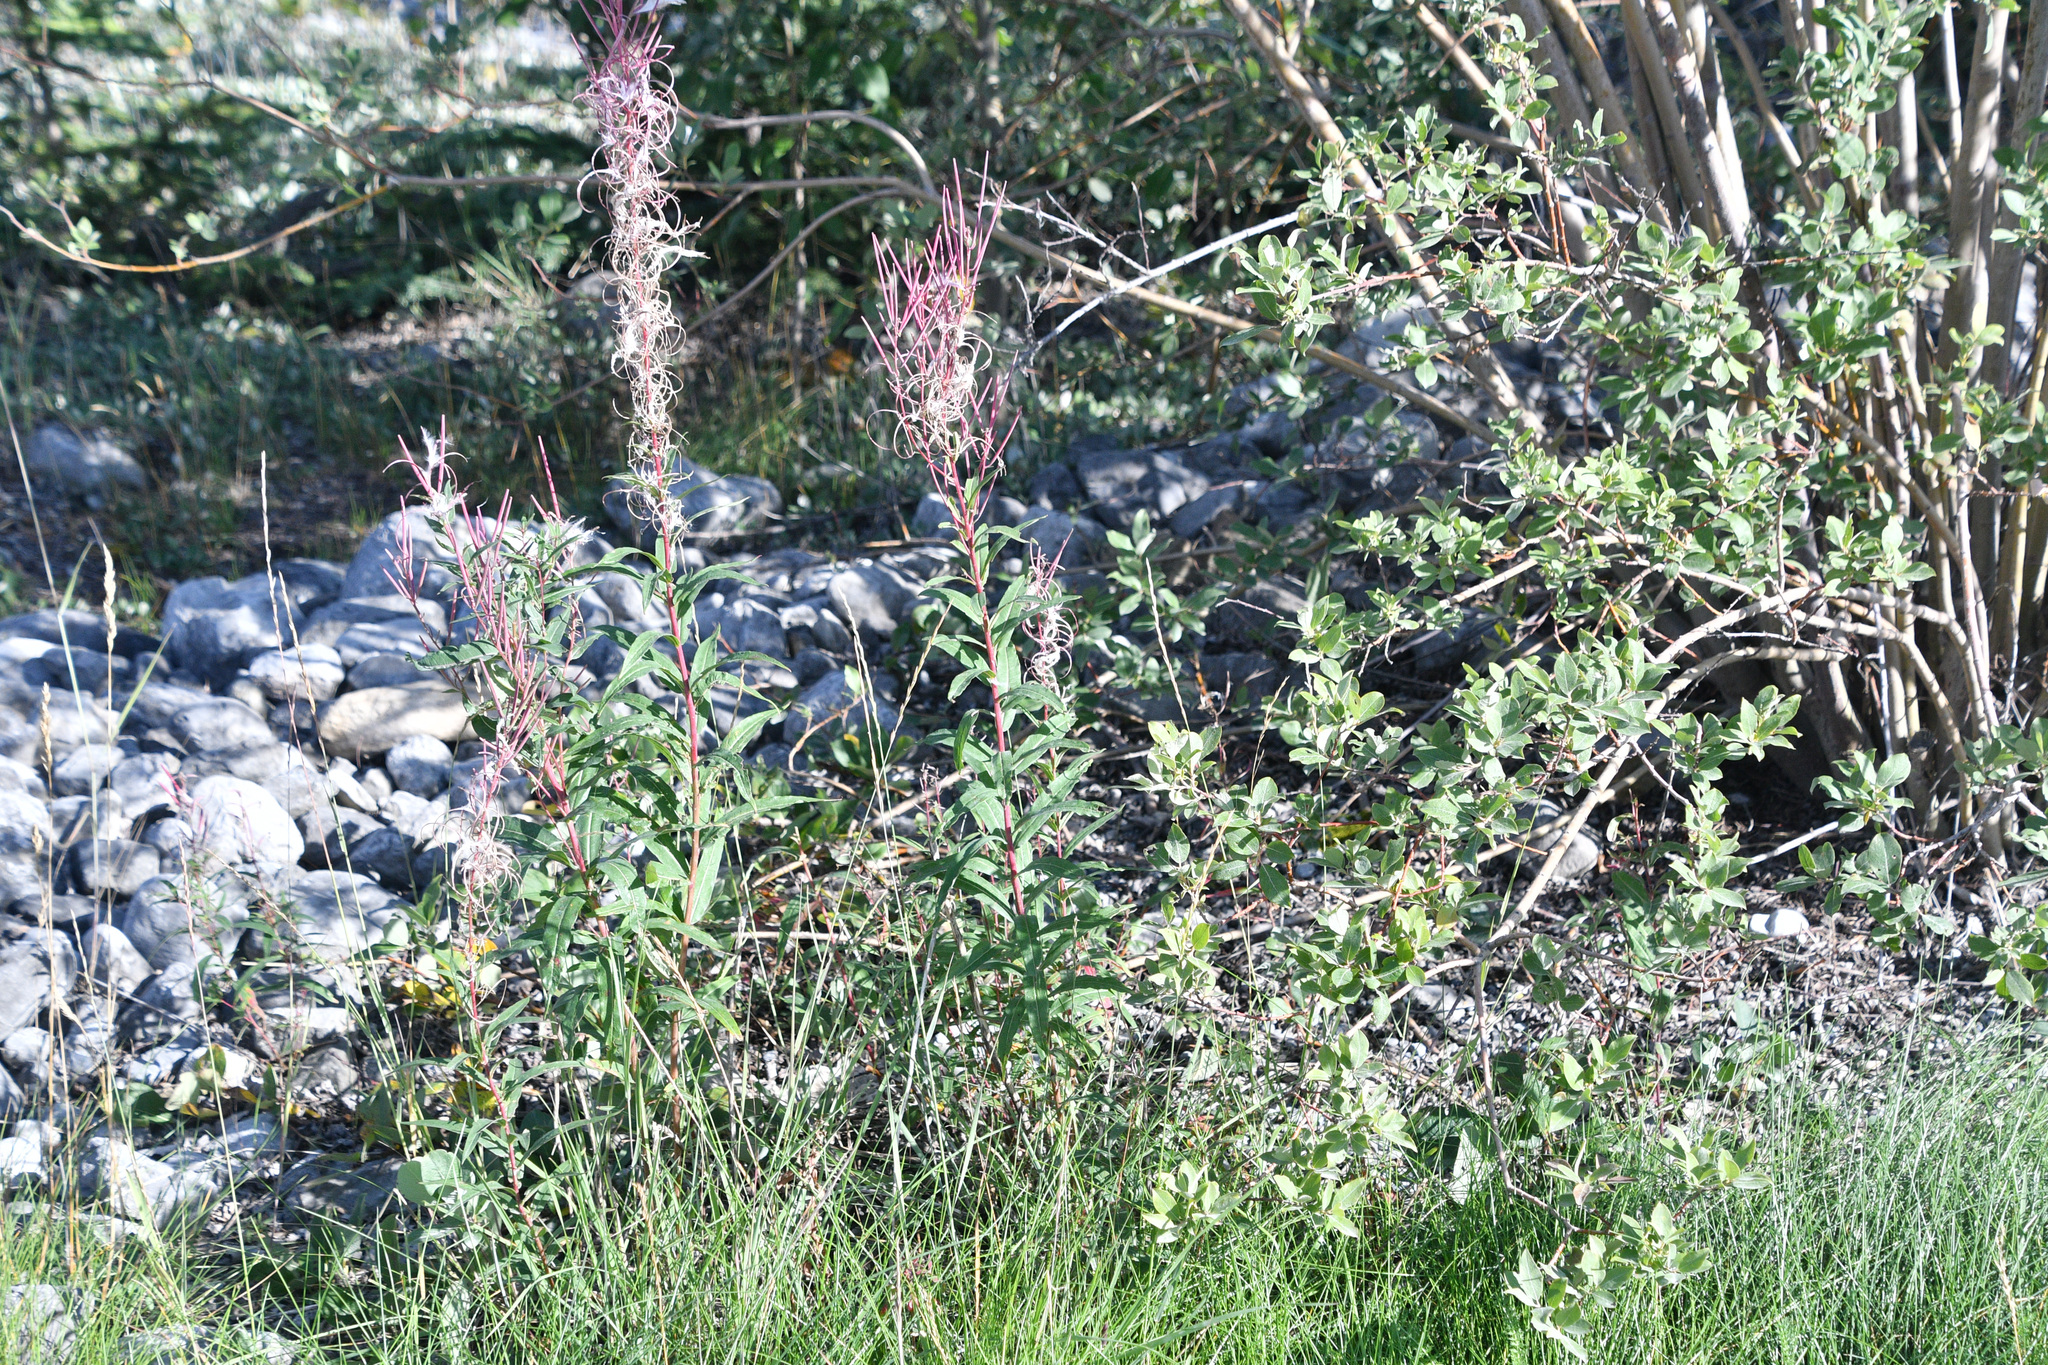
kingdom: Plantae
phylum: Tracheophyta
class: Magnoliopsida
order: Myrtales
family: Onagraceae
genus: Chamaenerion
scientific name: Chamaenerion angustifolium
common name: Fireweed
